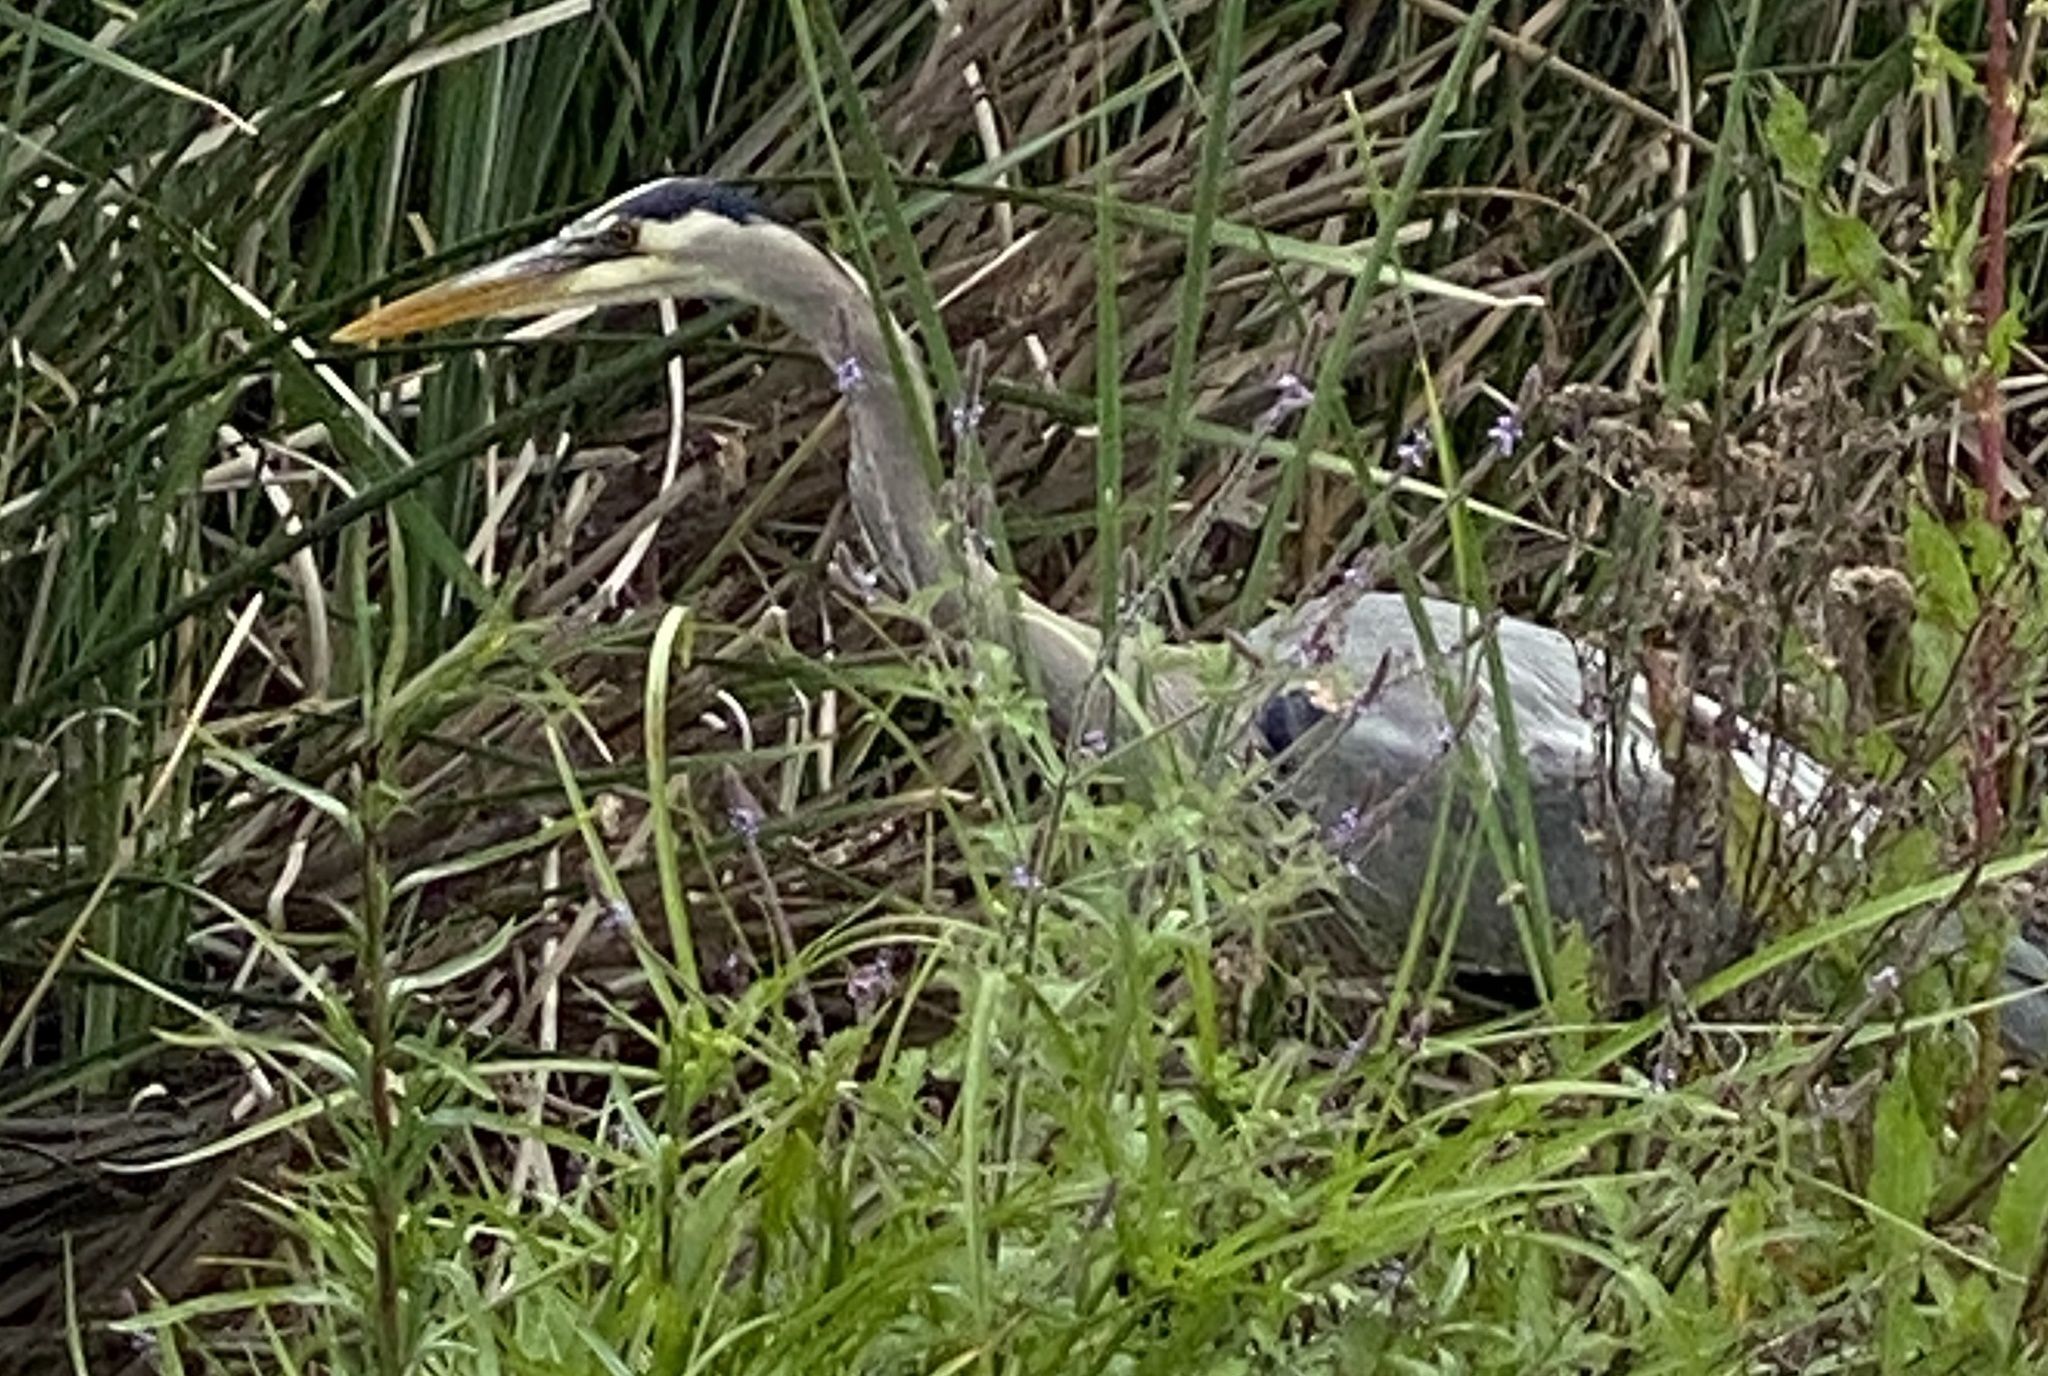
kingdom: Animalia
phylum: Chordata
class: Aves
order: Pelecaniformes
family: Ardeidae
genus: Ardea
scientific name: Ardea herodias
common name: Great blue heron
